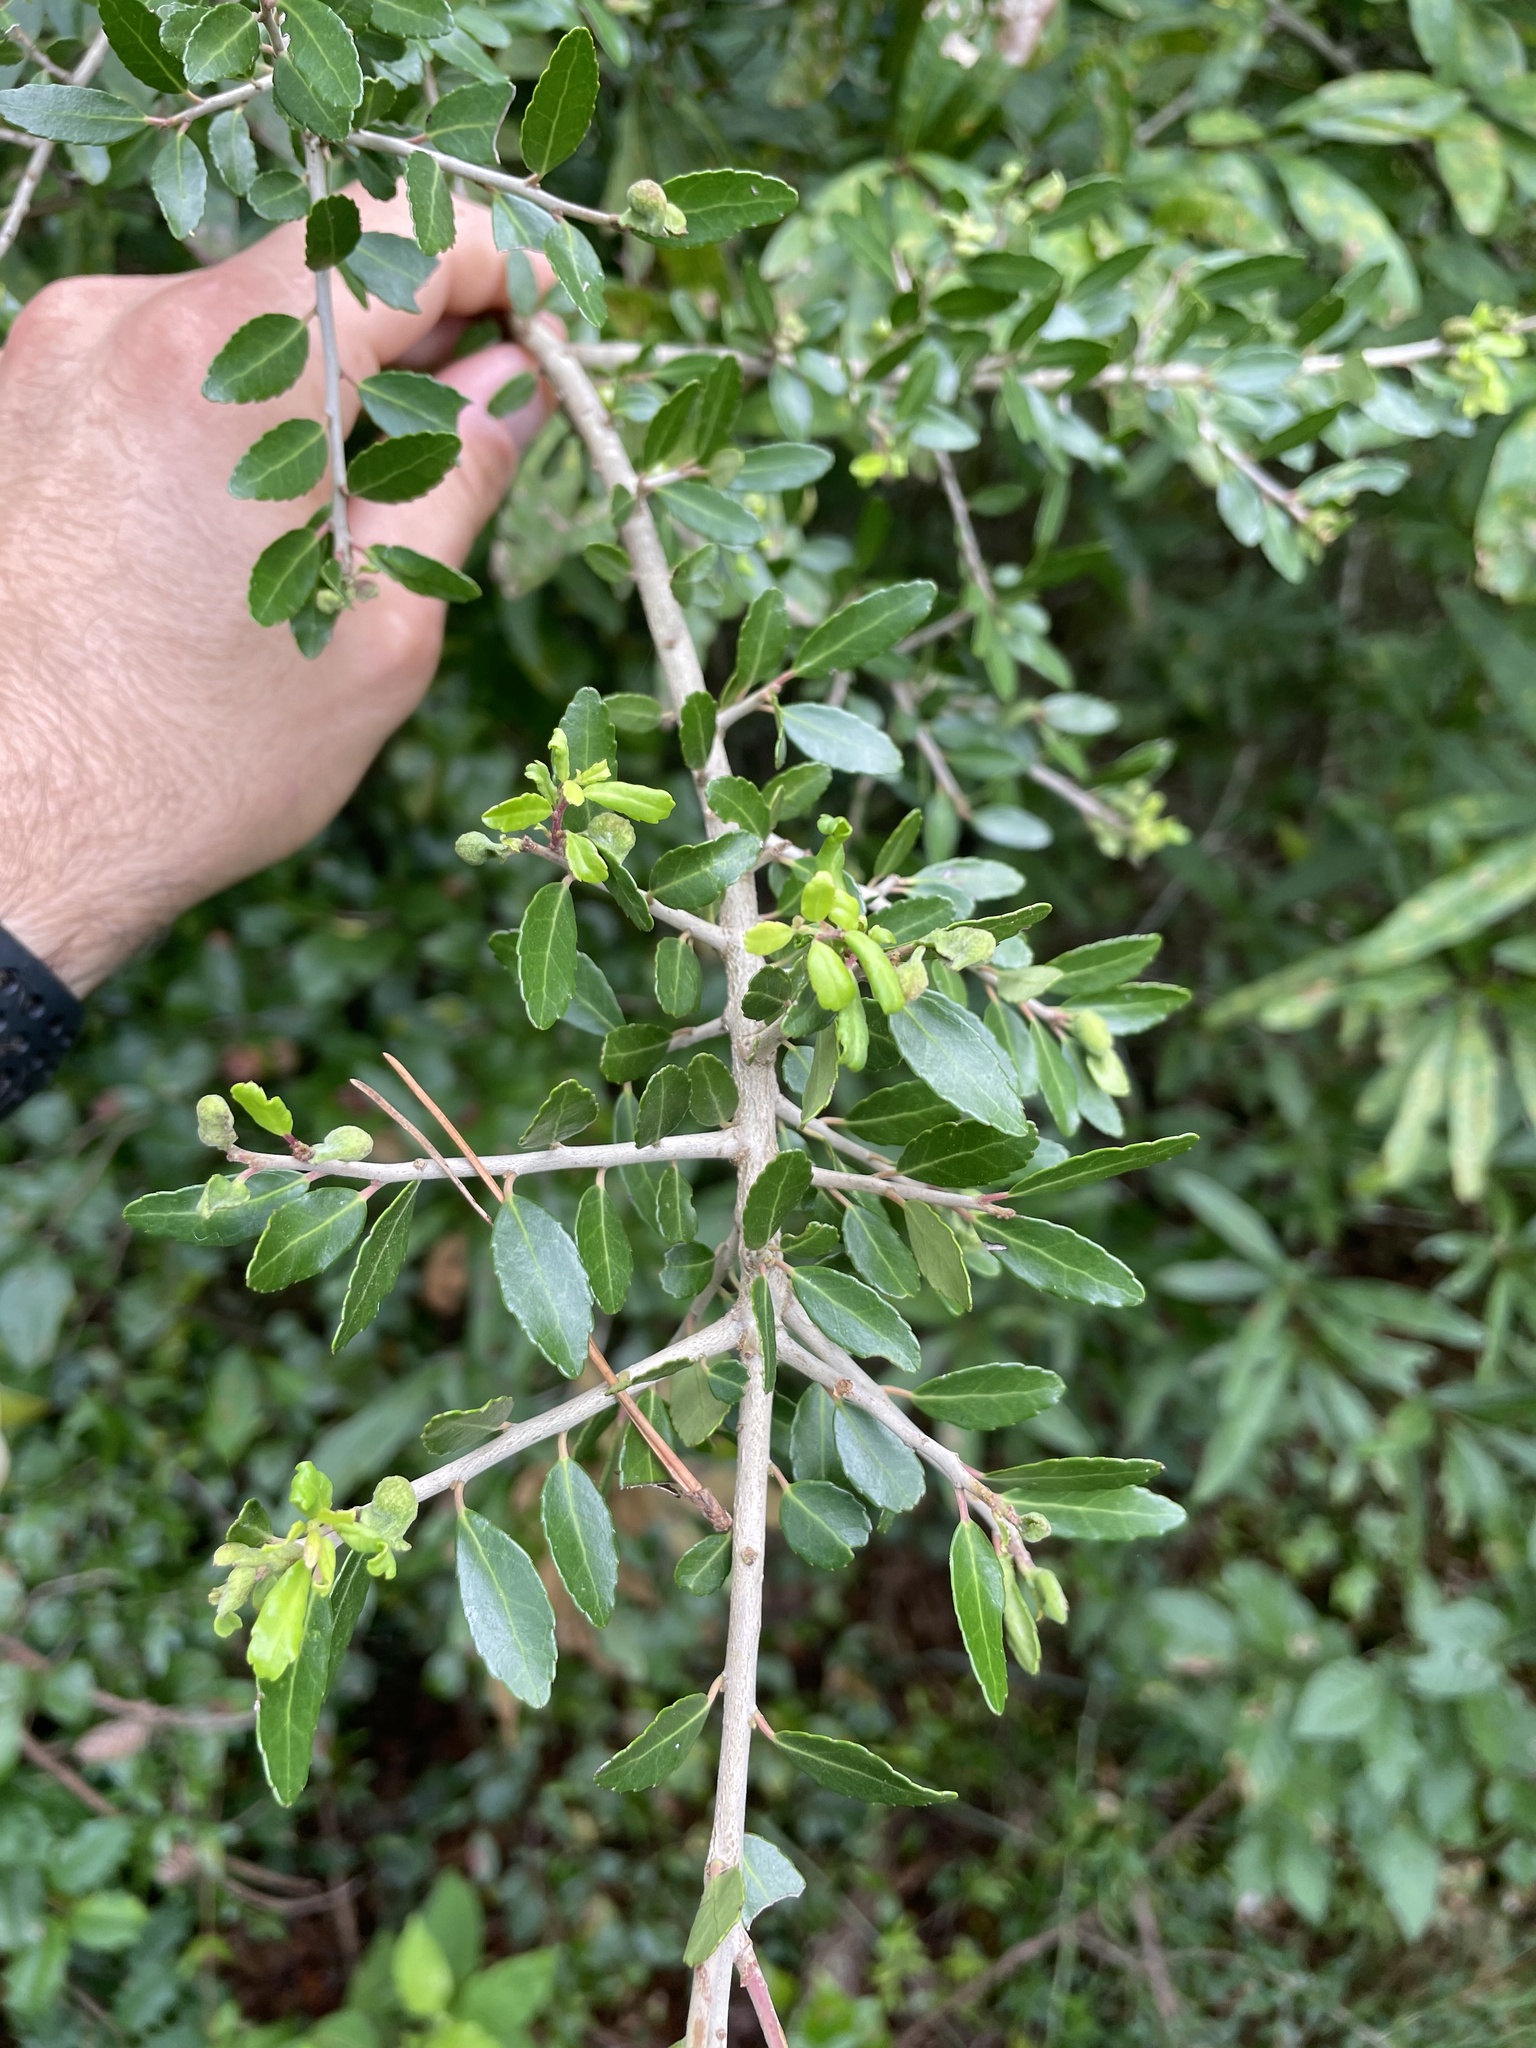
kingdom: Plantae
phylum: Tracheophyta
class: Magnoliopsida
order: Aquifoliales
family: Aquifoliaceae
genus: Ilex
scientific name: Ilex vomitoria
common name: Yaupon holly
